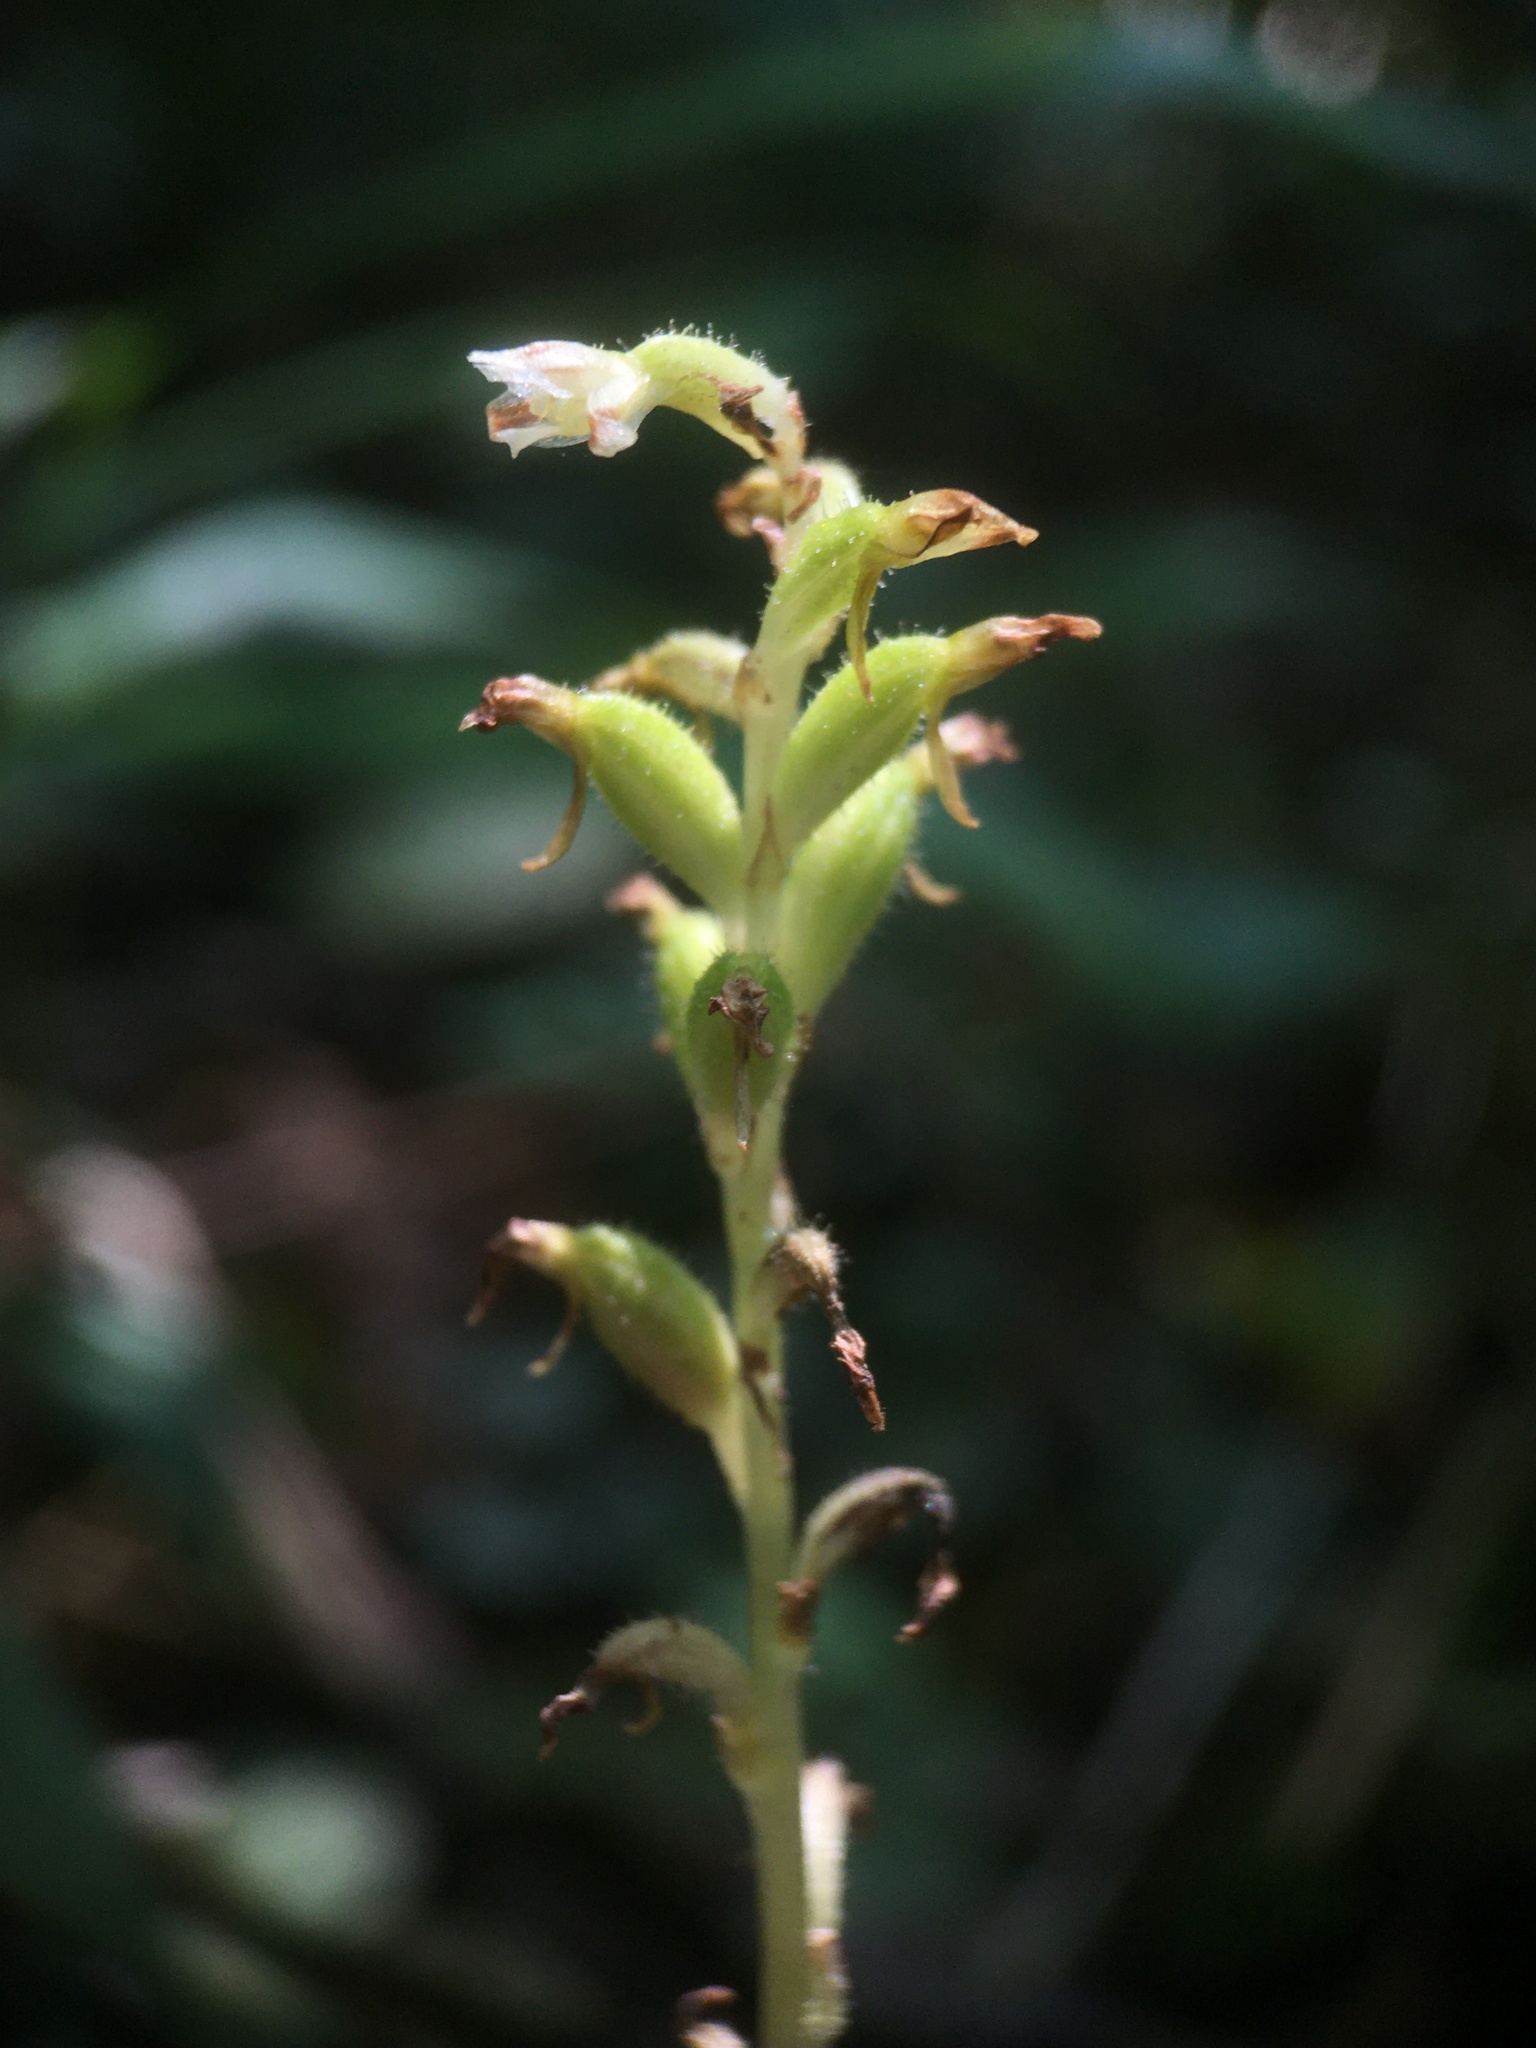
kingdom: Plantae
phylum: Tracheophyta
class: Liliopsida
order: Asparagales
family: Orchidaceae
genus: Aspidogyne
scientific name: Aspidogyne kuczynskii
